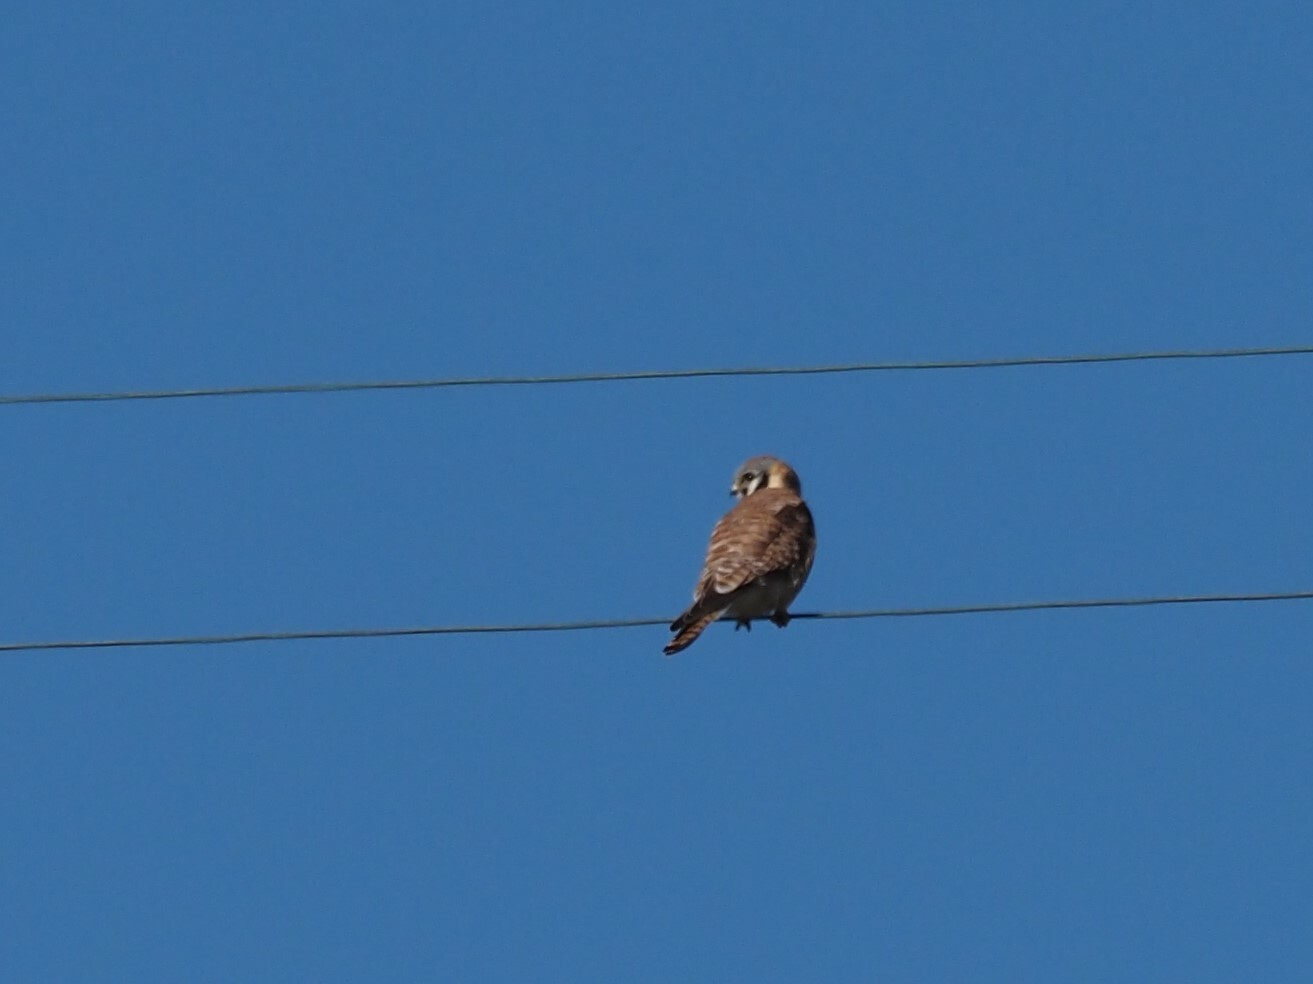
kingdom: Animalia
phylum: Chordata
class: Aves
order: Falconiformes
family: Falconidae
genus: Falco
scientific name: Falco sparverius
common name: American kestrel
